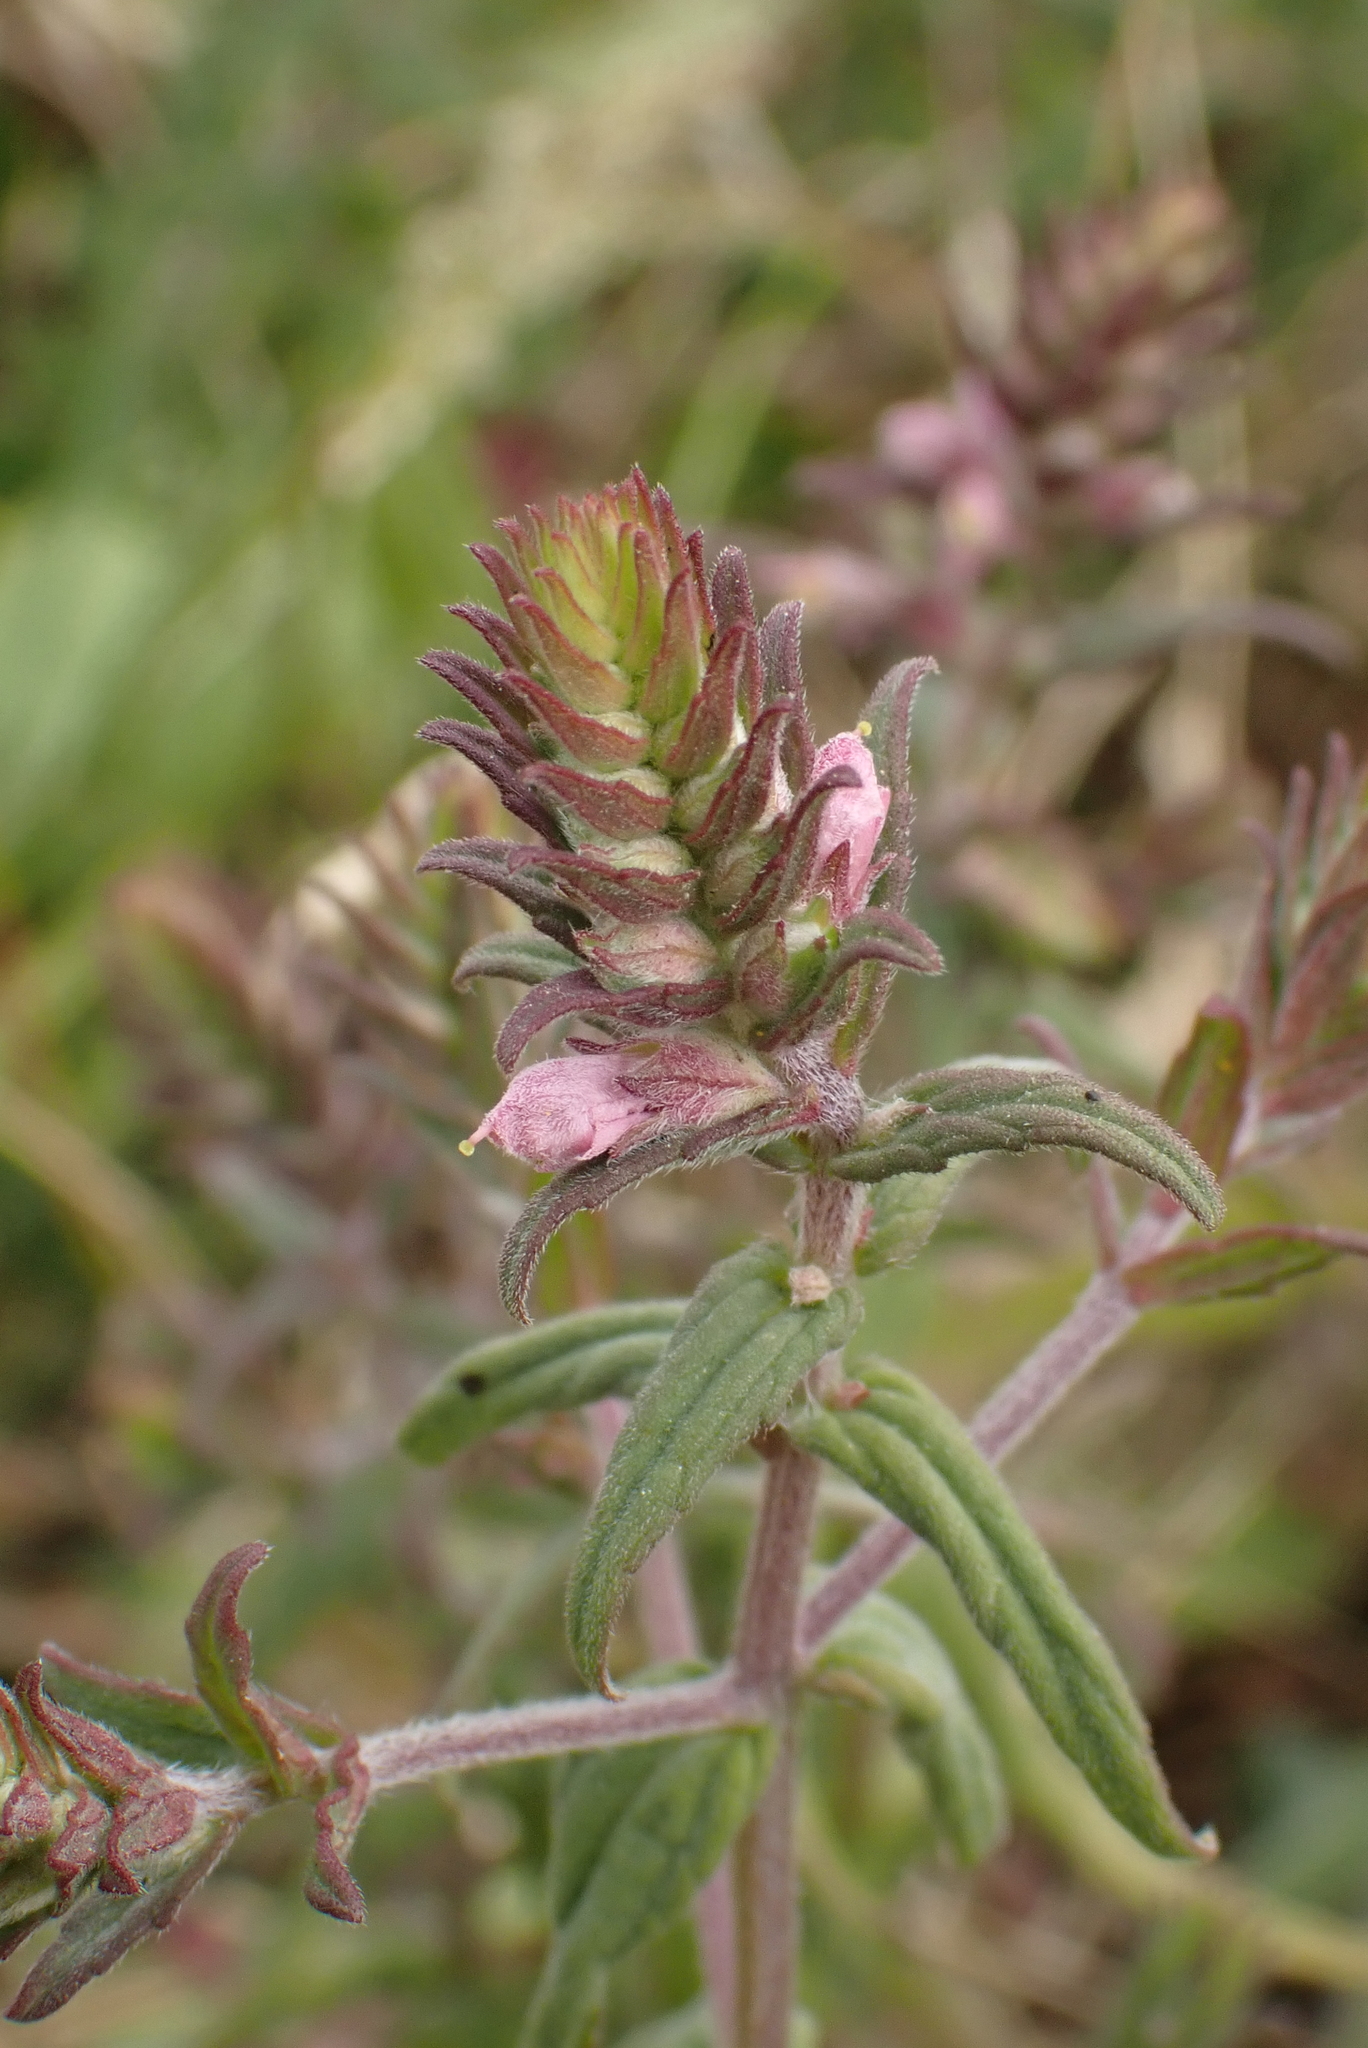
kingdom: Plantae
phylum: Tracheophyta
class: Magnoliopsida
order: Lamiales
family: Orobanchaceae
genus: Odontites
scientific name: Odontites vernus
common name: Red bartsia
